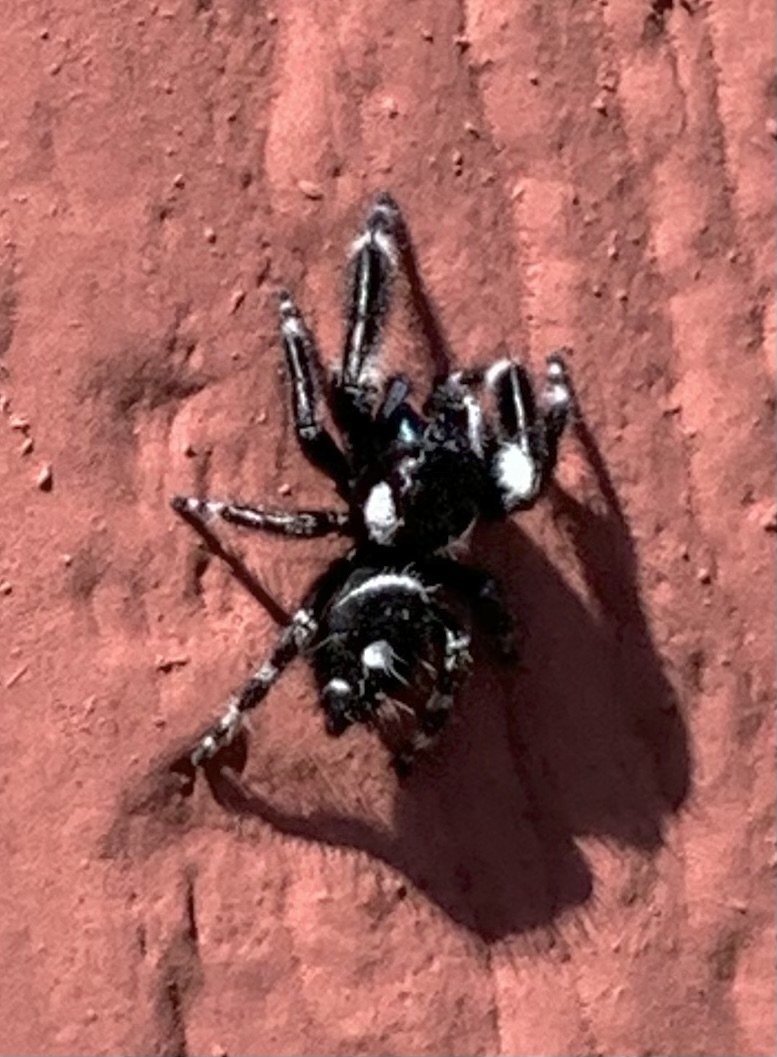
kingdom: Animalia
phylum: Arthropoda
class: Arachnida
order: Araneae
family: Salticidae
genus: Phidippus
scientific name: Phidippus audax
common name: Bold jumper
